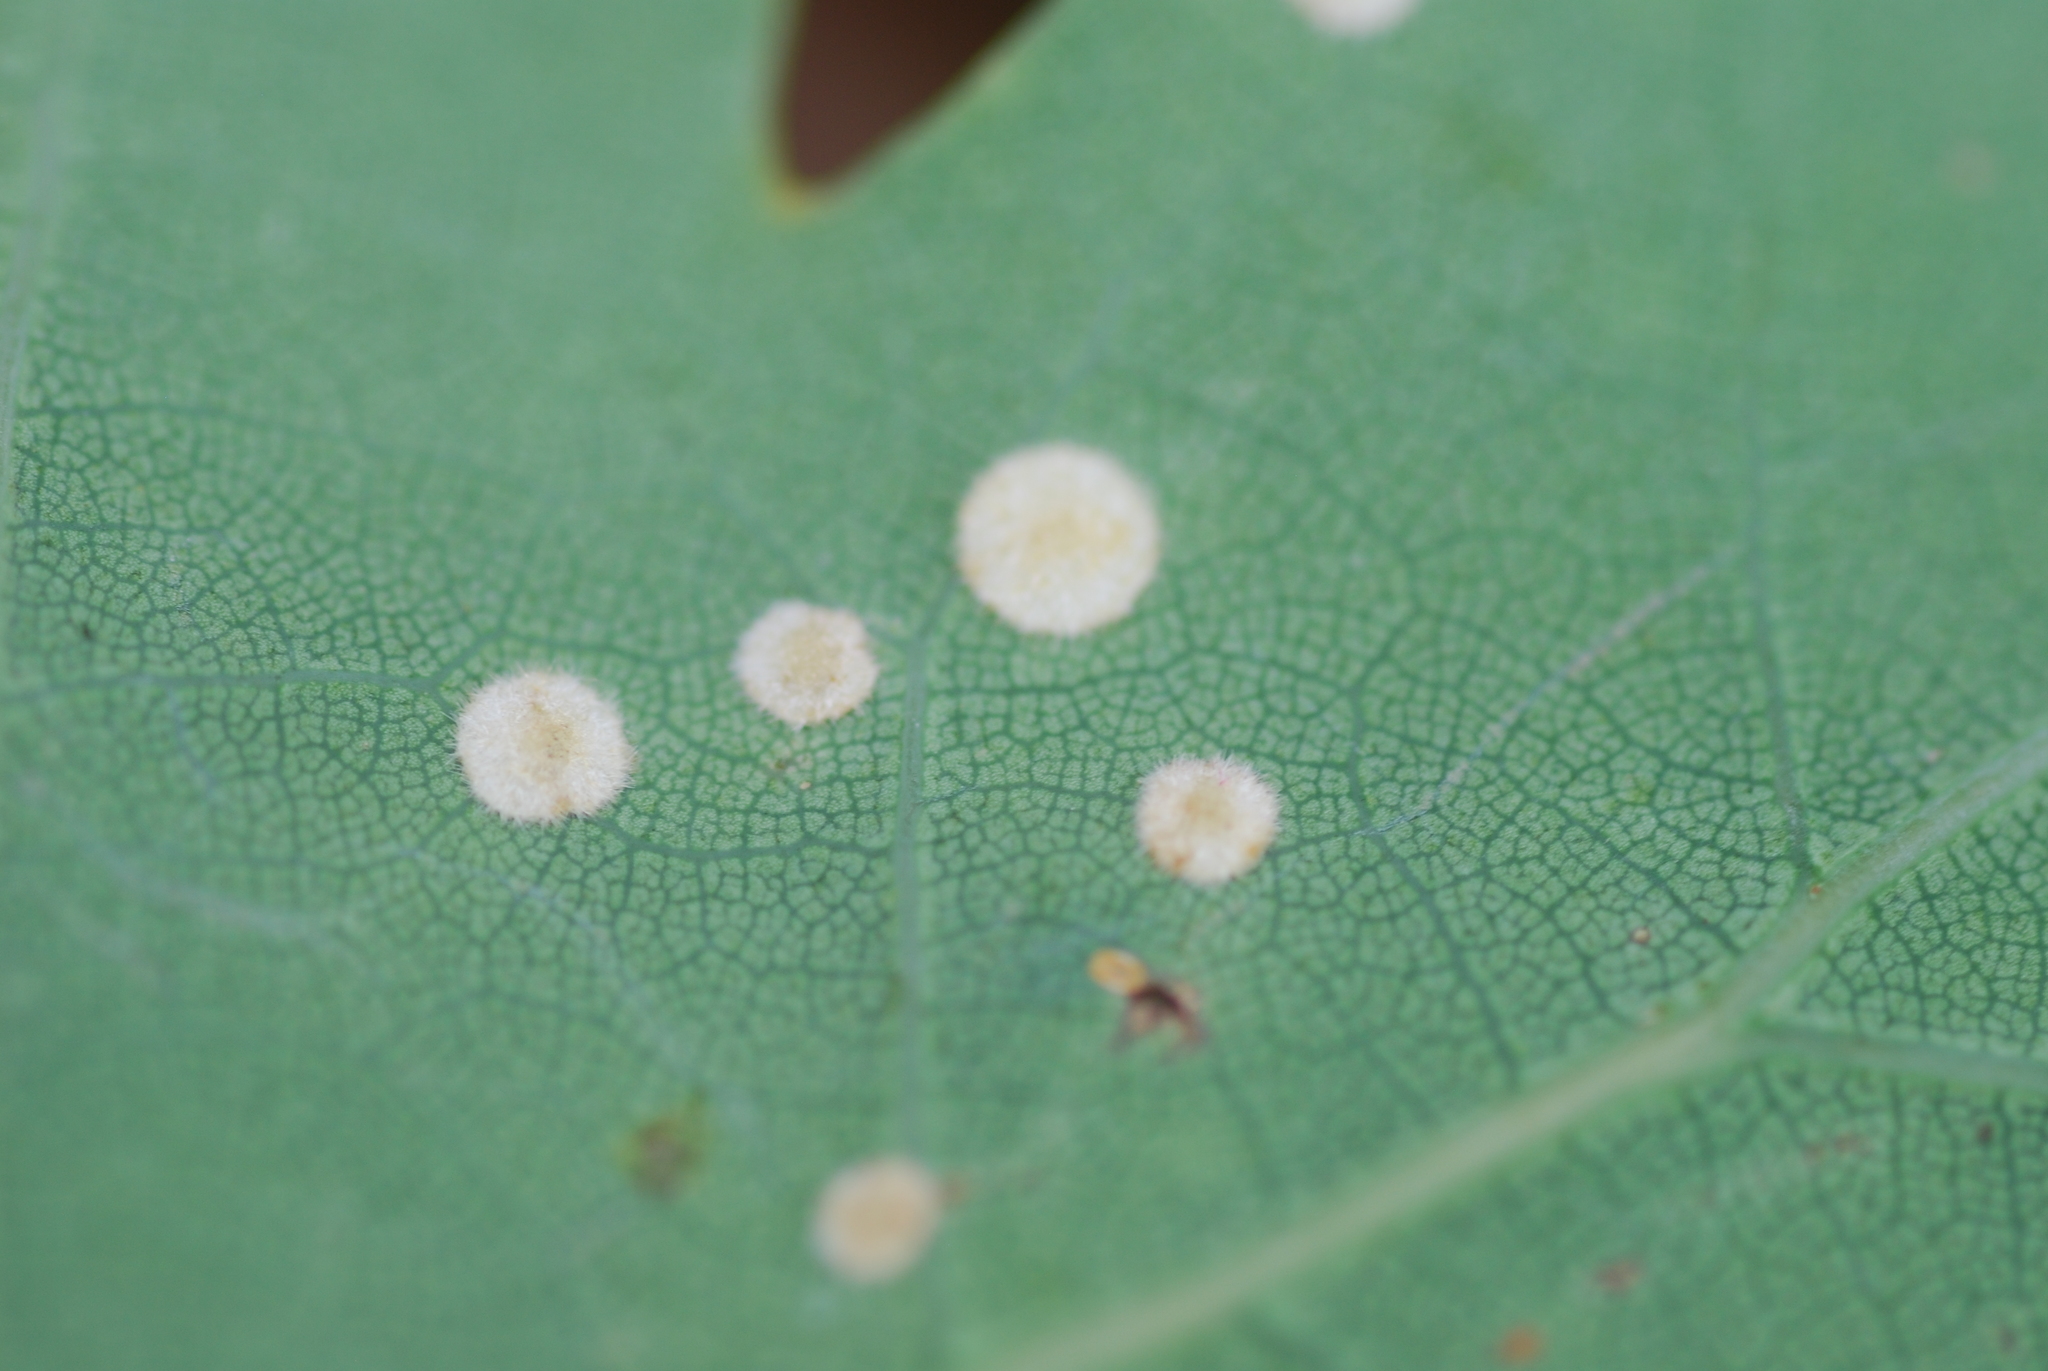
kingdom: Animalia
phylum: Arthropoda
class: Insecta
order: Hymenoptera
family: Cynipidae
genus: Neuroterus
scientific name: Neuroterus quercusbaccarum
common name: Common spangle gall
